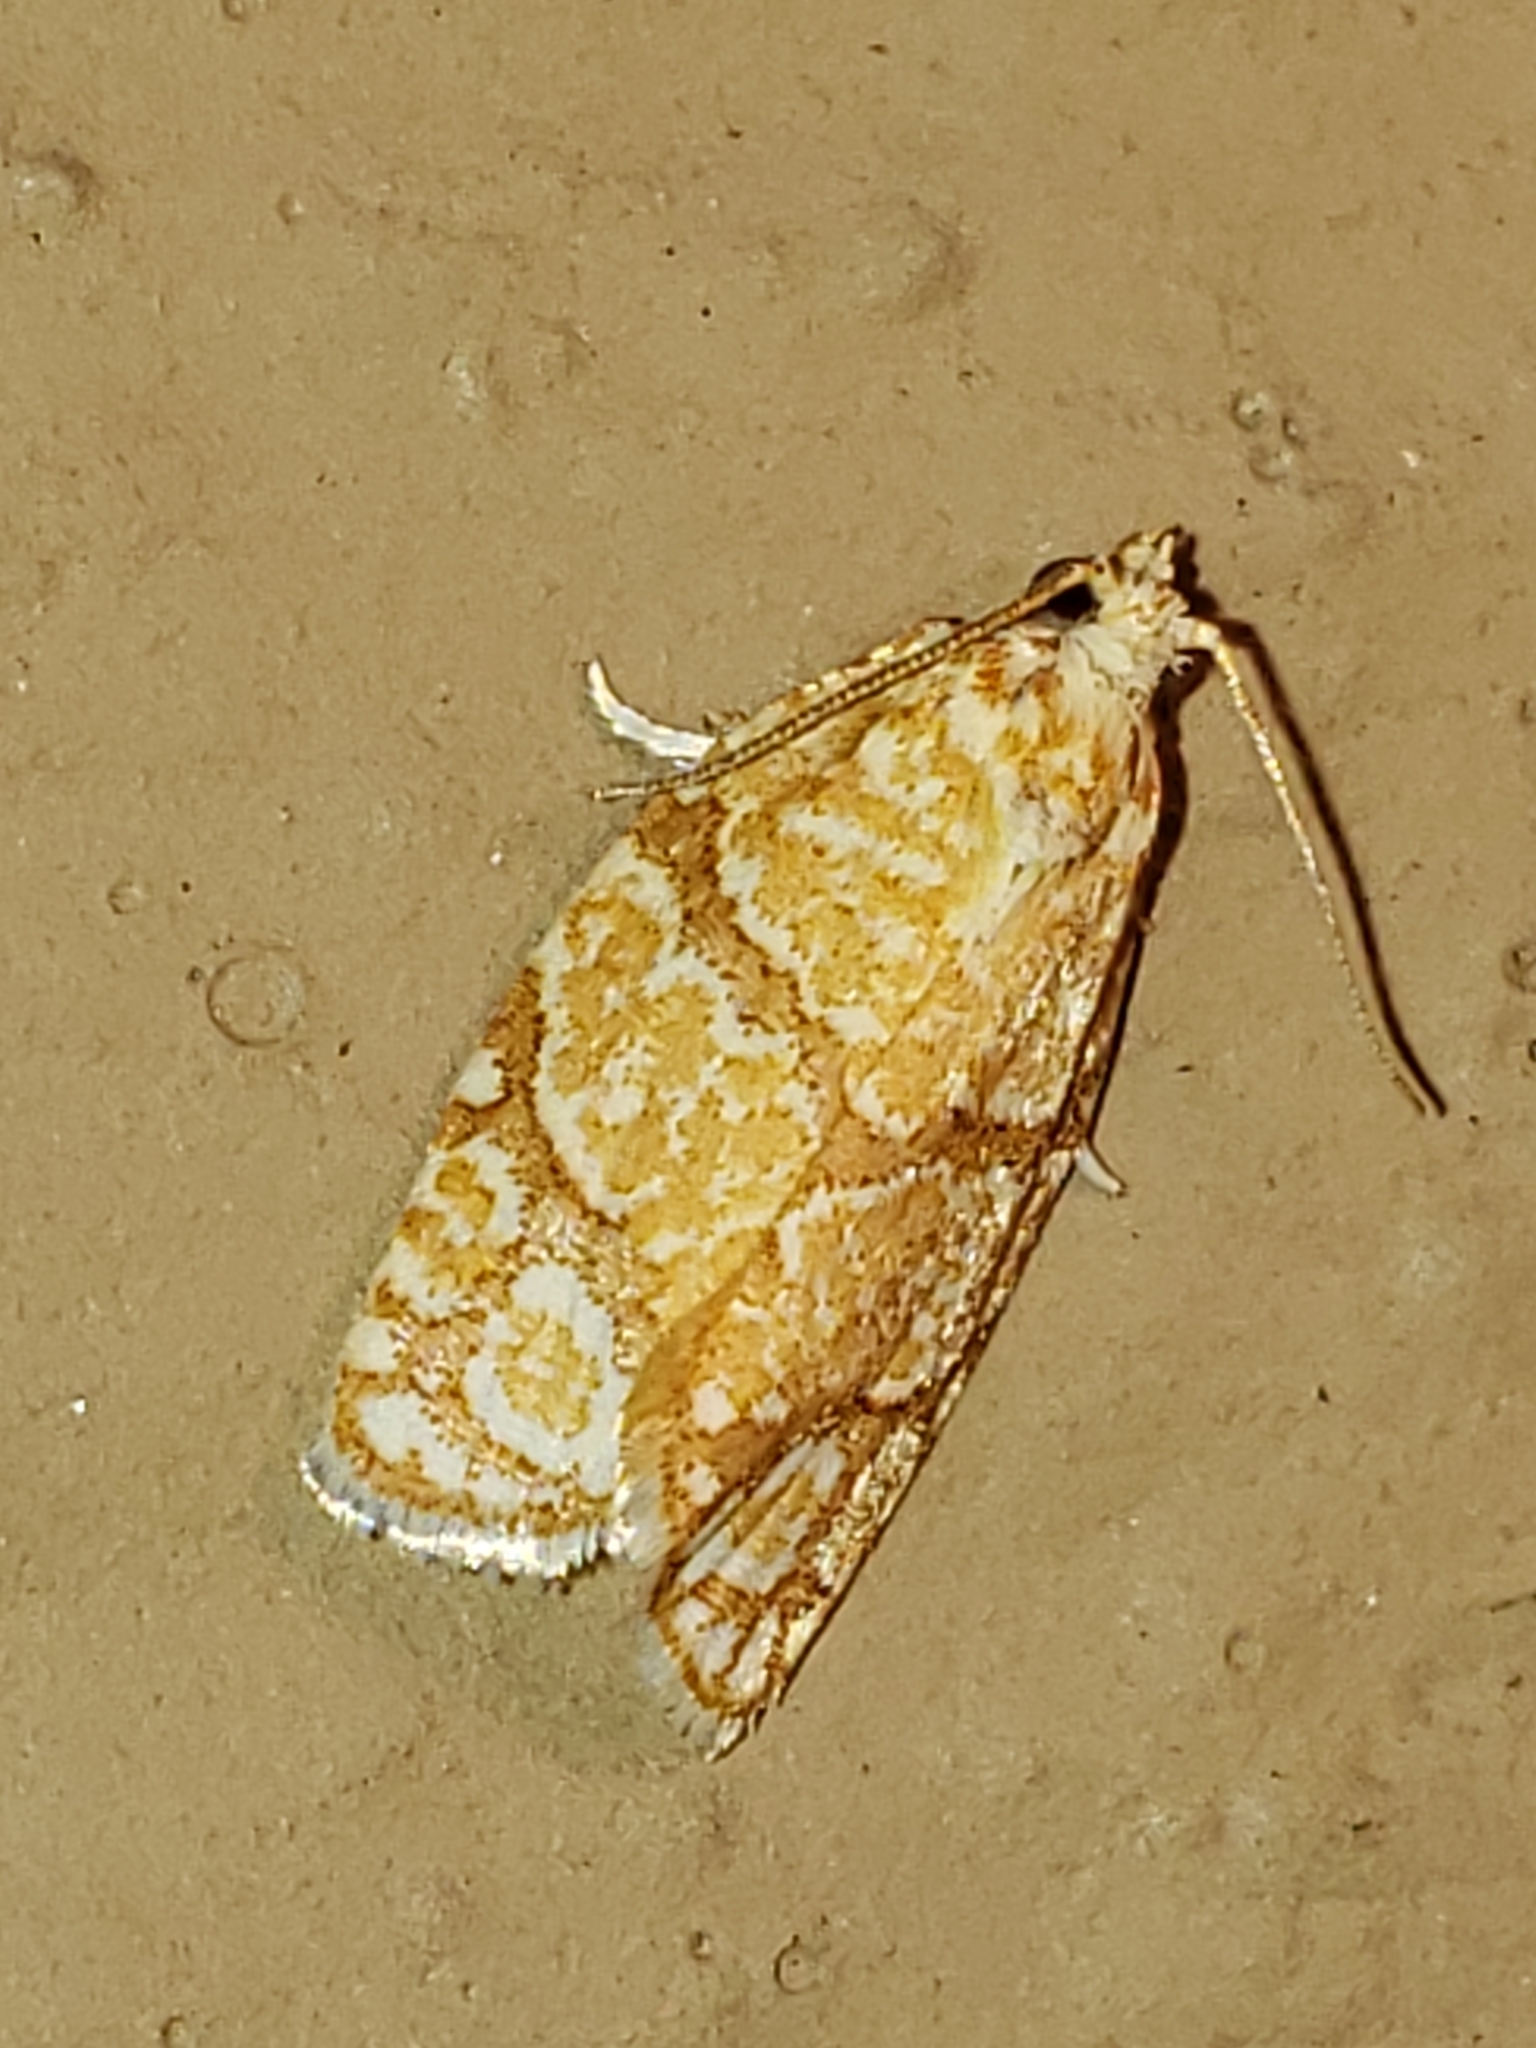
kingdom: Animalia
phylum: Arthropoda
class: Insecta
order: Lepidoptera
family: Tortricidae
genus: Argyrotaenia
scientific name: Argyrotaenia quercifoliana
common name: Yellow-winged oak leafroller moth
